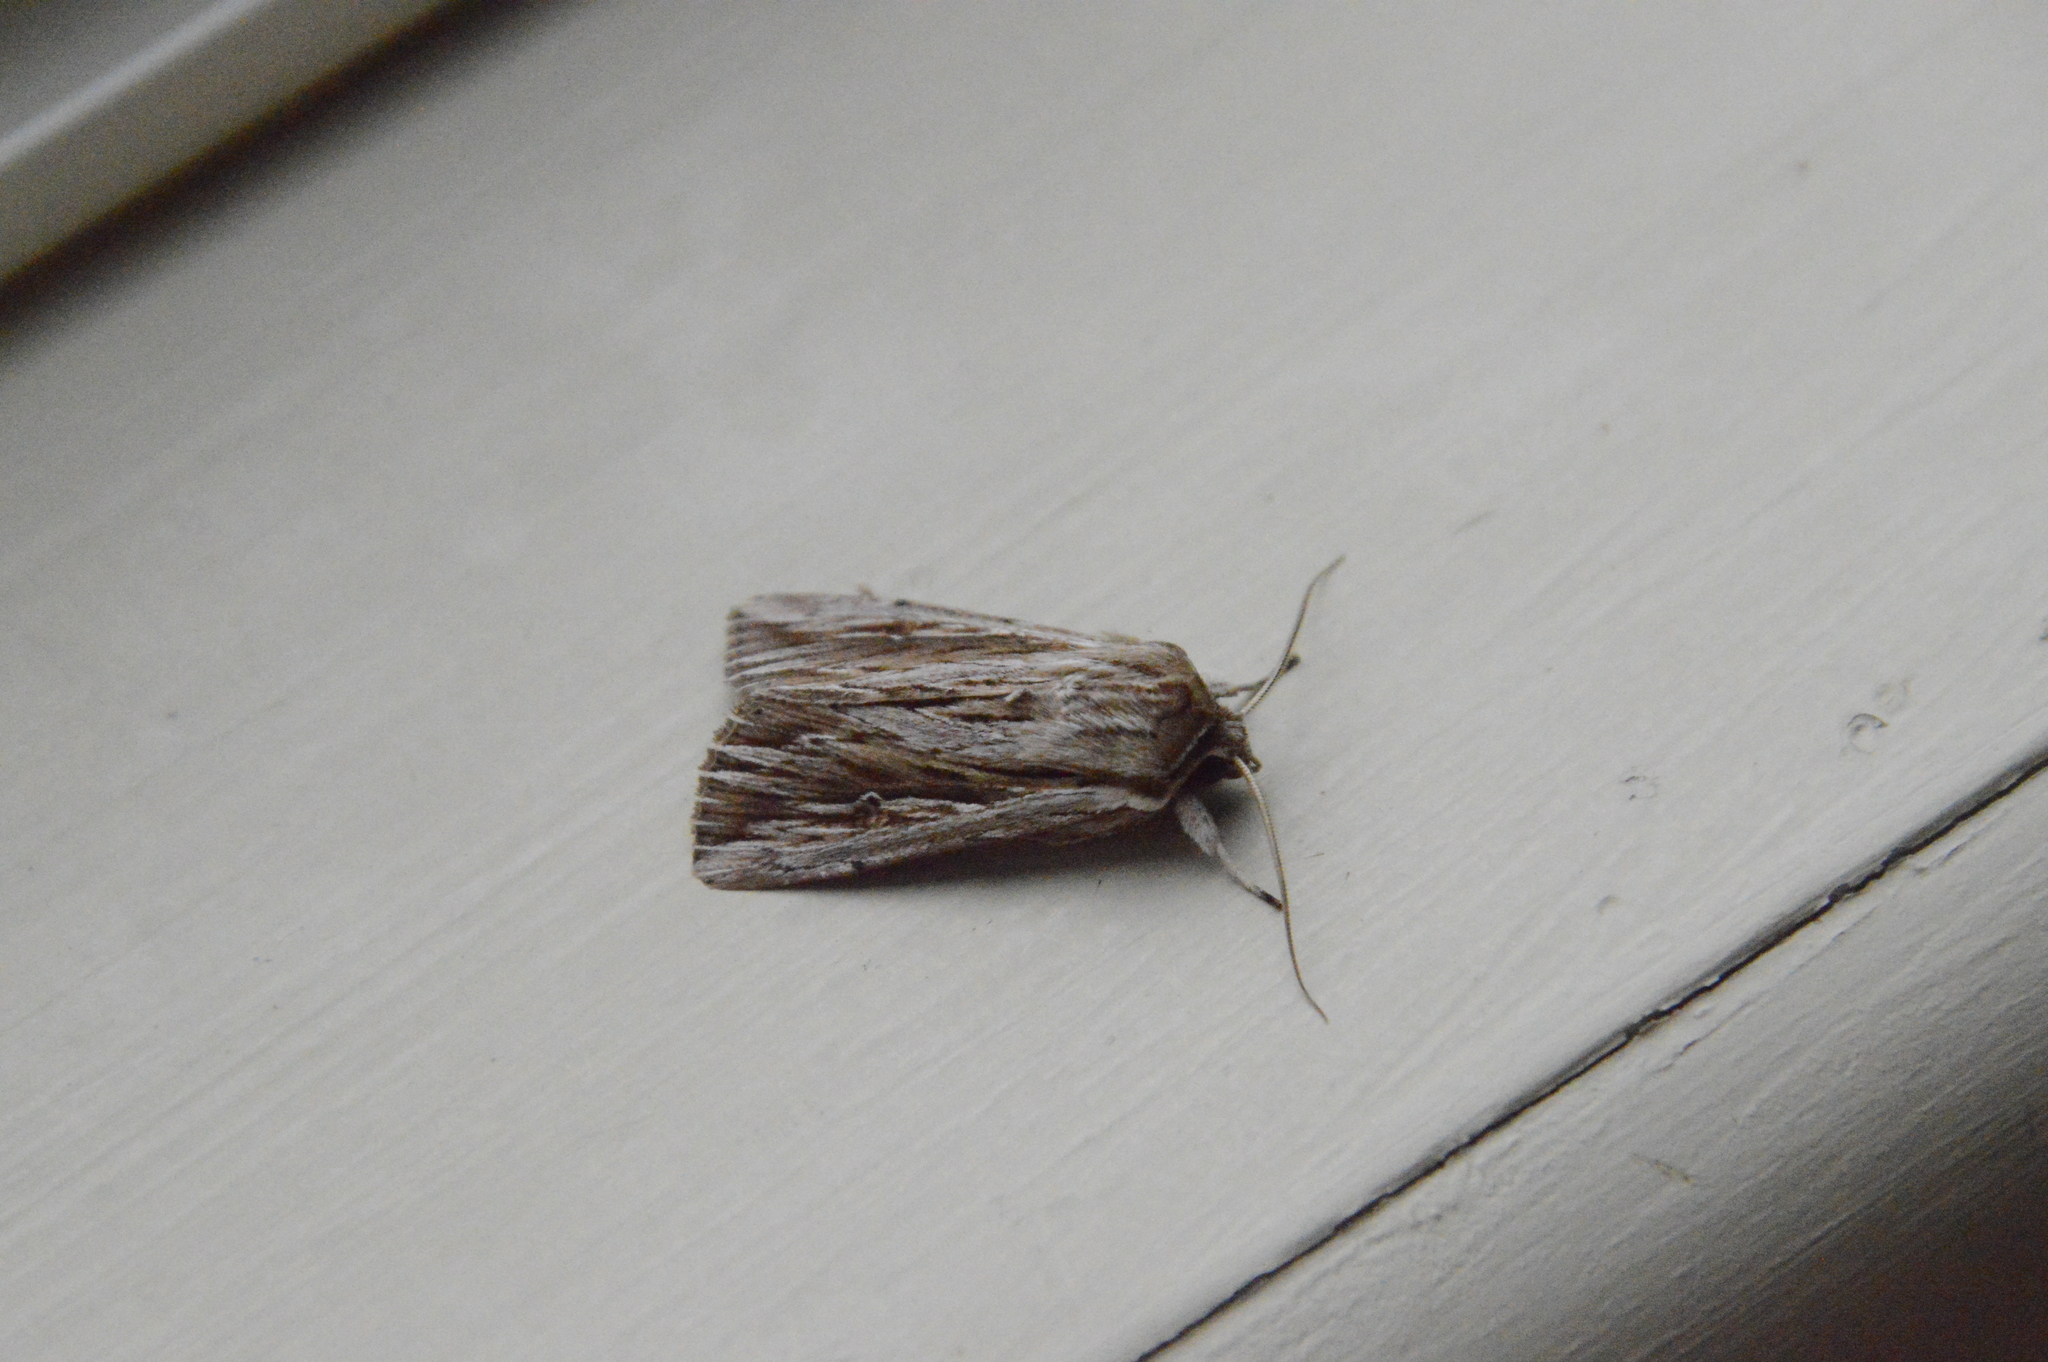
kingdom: Animalia
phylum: Arthropoda
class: Insecta
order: Lepidoptera
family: Noctuidae
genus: Persectania
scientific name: Persectania aversa
